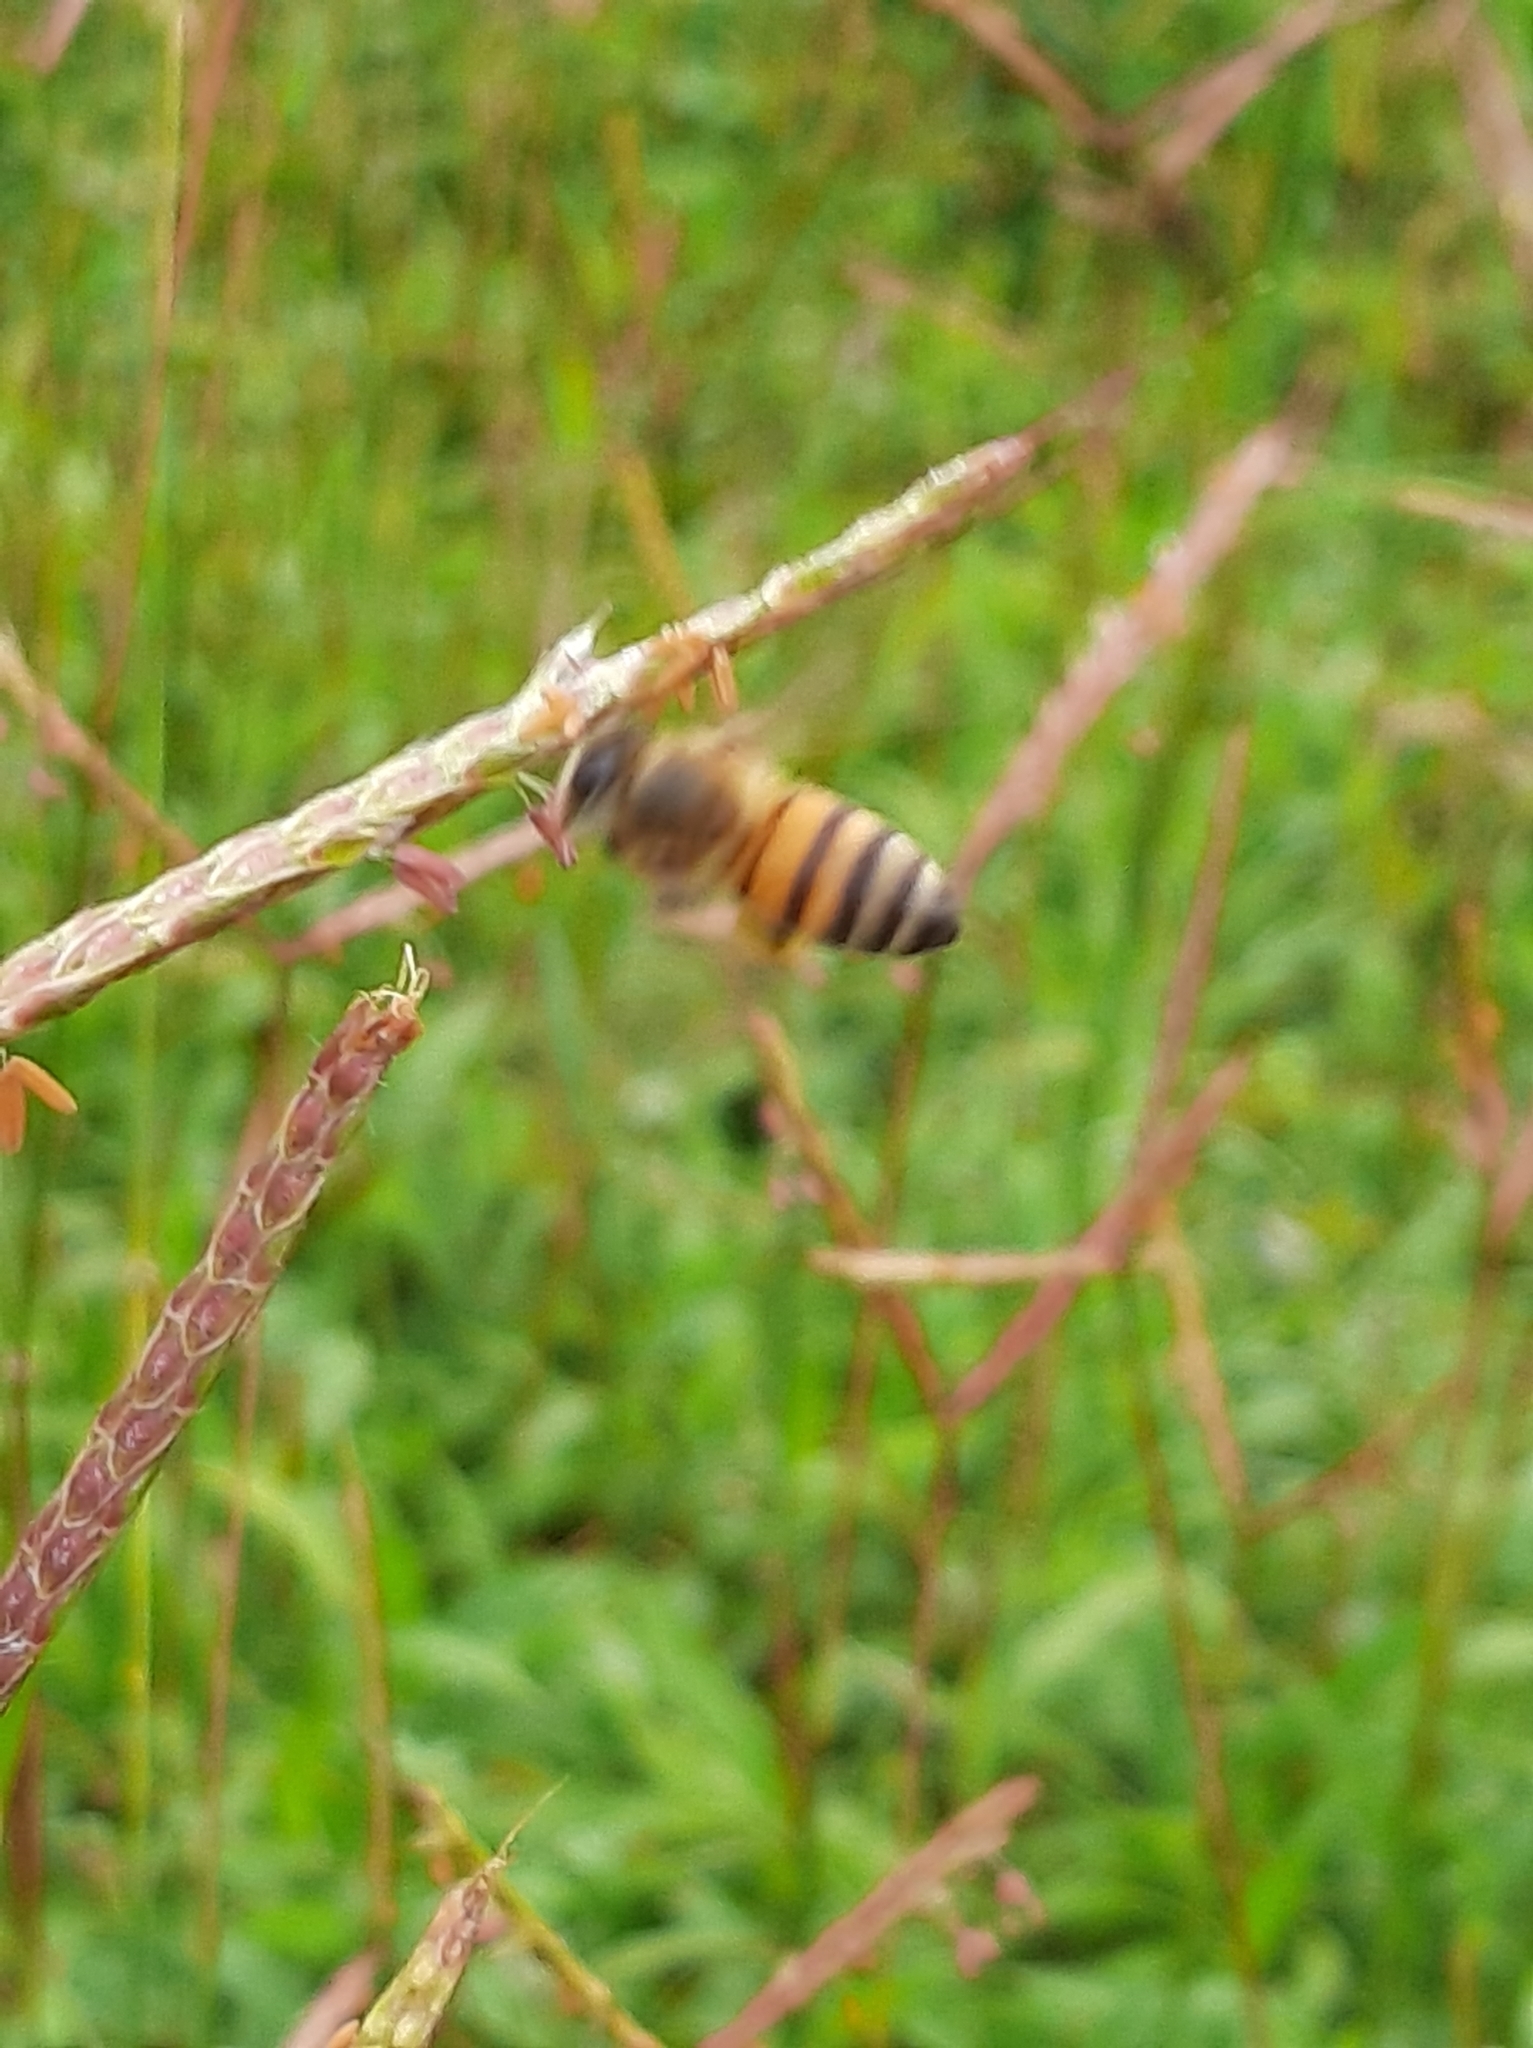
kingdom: Animalia
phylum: Arthropoda
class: Insecta
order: Hymenoptera
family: Apidae
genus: Apis
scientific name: Apis mellifera
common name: Honey bee
